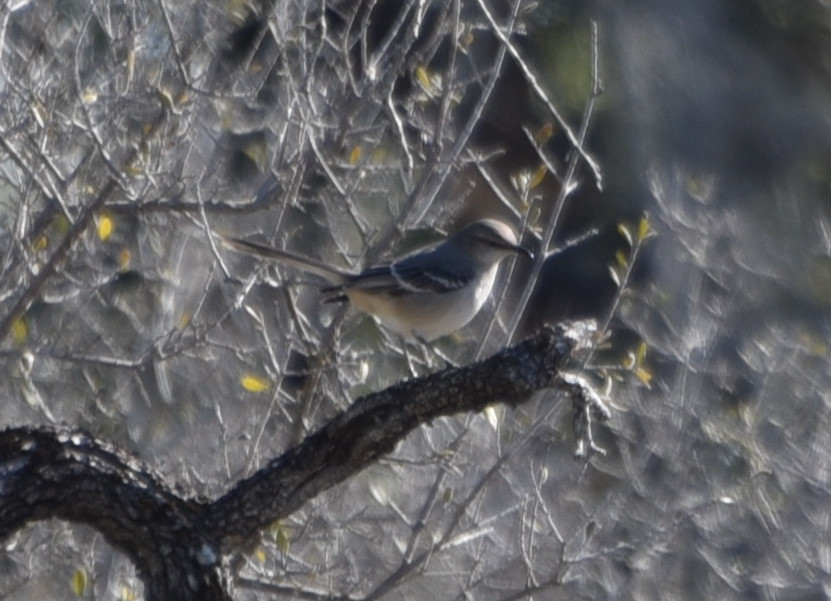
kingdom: Animalia
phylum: Chordata
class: Aves
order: Passeriformes
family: Mimidae
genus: Mimus
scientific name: Mimus polyglottos
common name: Northern mockingbird
